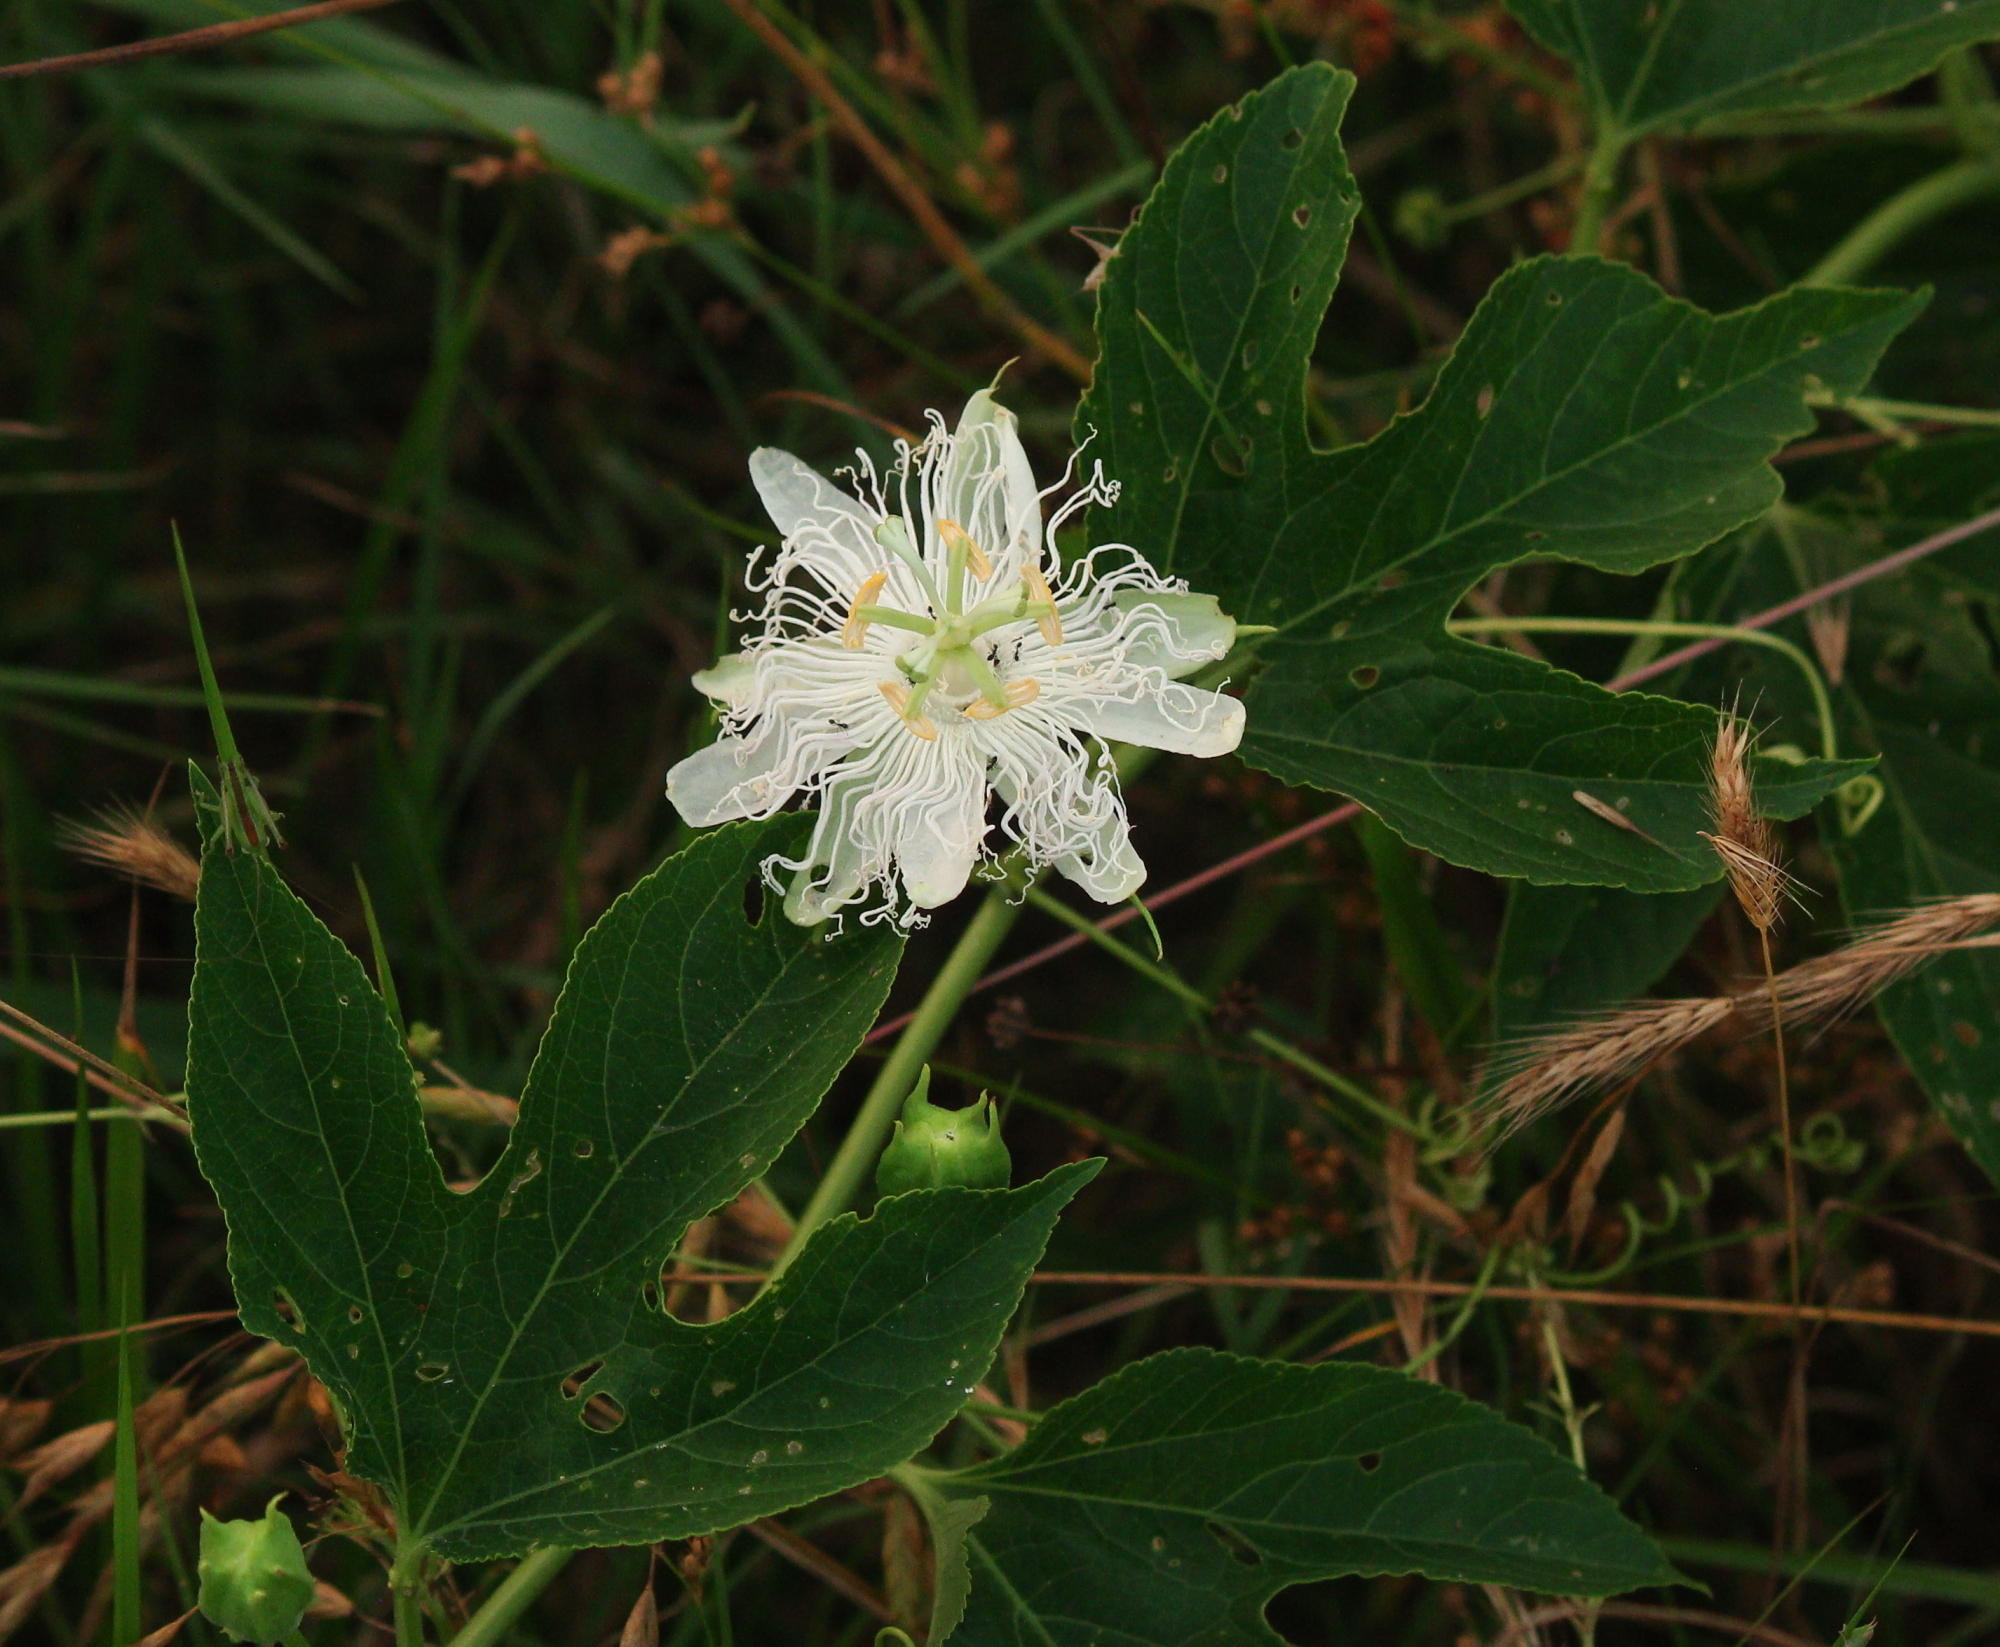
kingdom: Plantae
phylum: Tracheophyta
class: Magnoliopsida
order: Malpighiales
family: Passifloraceae
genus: Passiflora
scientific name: Passiflora incarnata
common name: Apricot-vine
